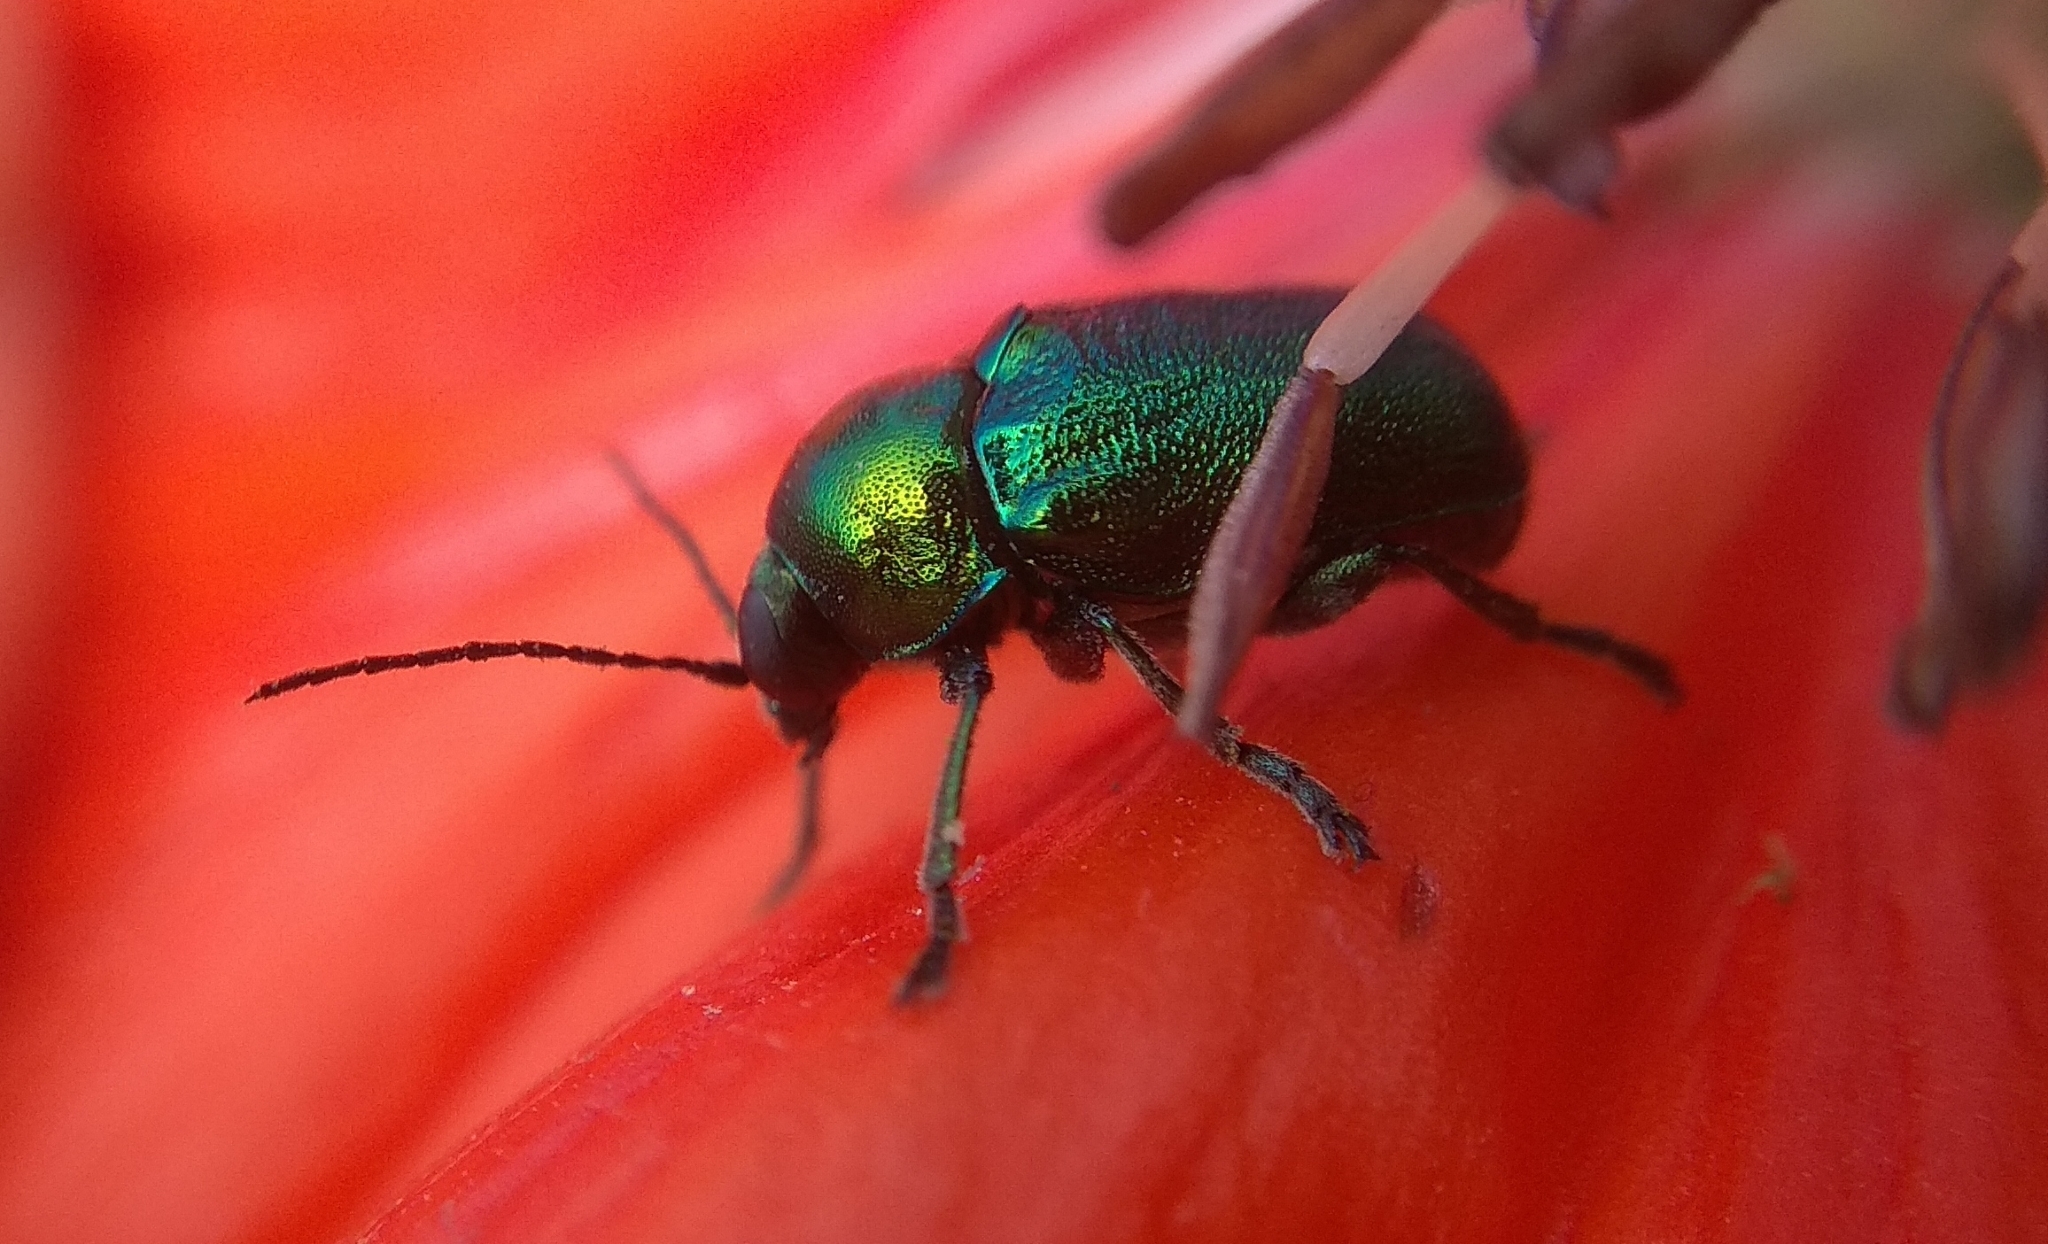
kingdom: Animalia
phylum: Arthropoda
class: Insecta
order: Coleoptera
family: Chrysomelidae
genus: Cryptocephalus
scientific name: Cryptocephalus
